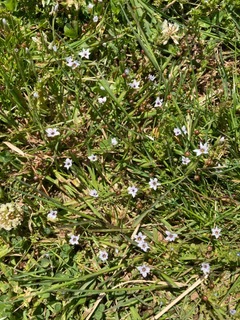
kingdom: Plantae
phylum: Tracheophyta
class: Liliopsida
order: Asparagales
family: Iridaceae
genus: Sisyrinchium
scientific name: Sisyrinchium micranthum
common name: Bermuda pigroot
